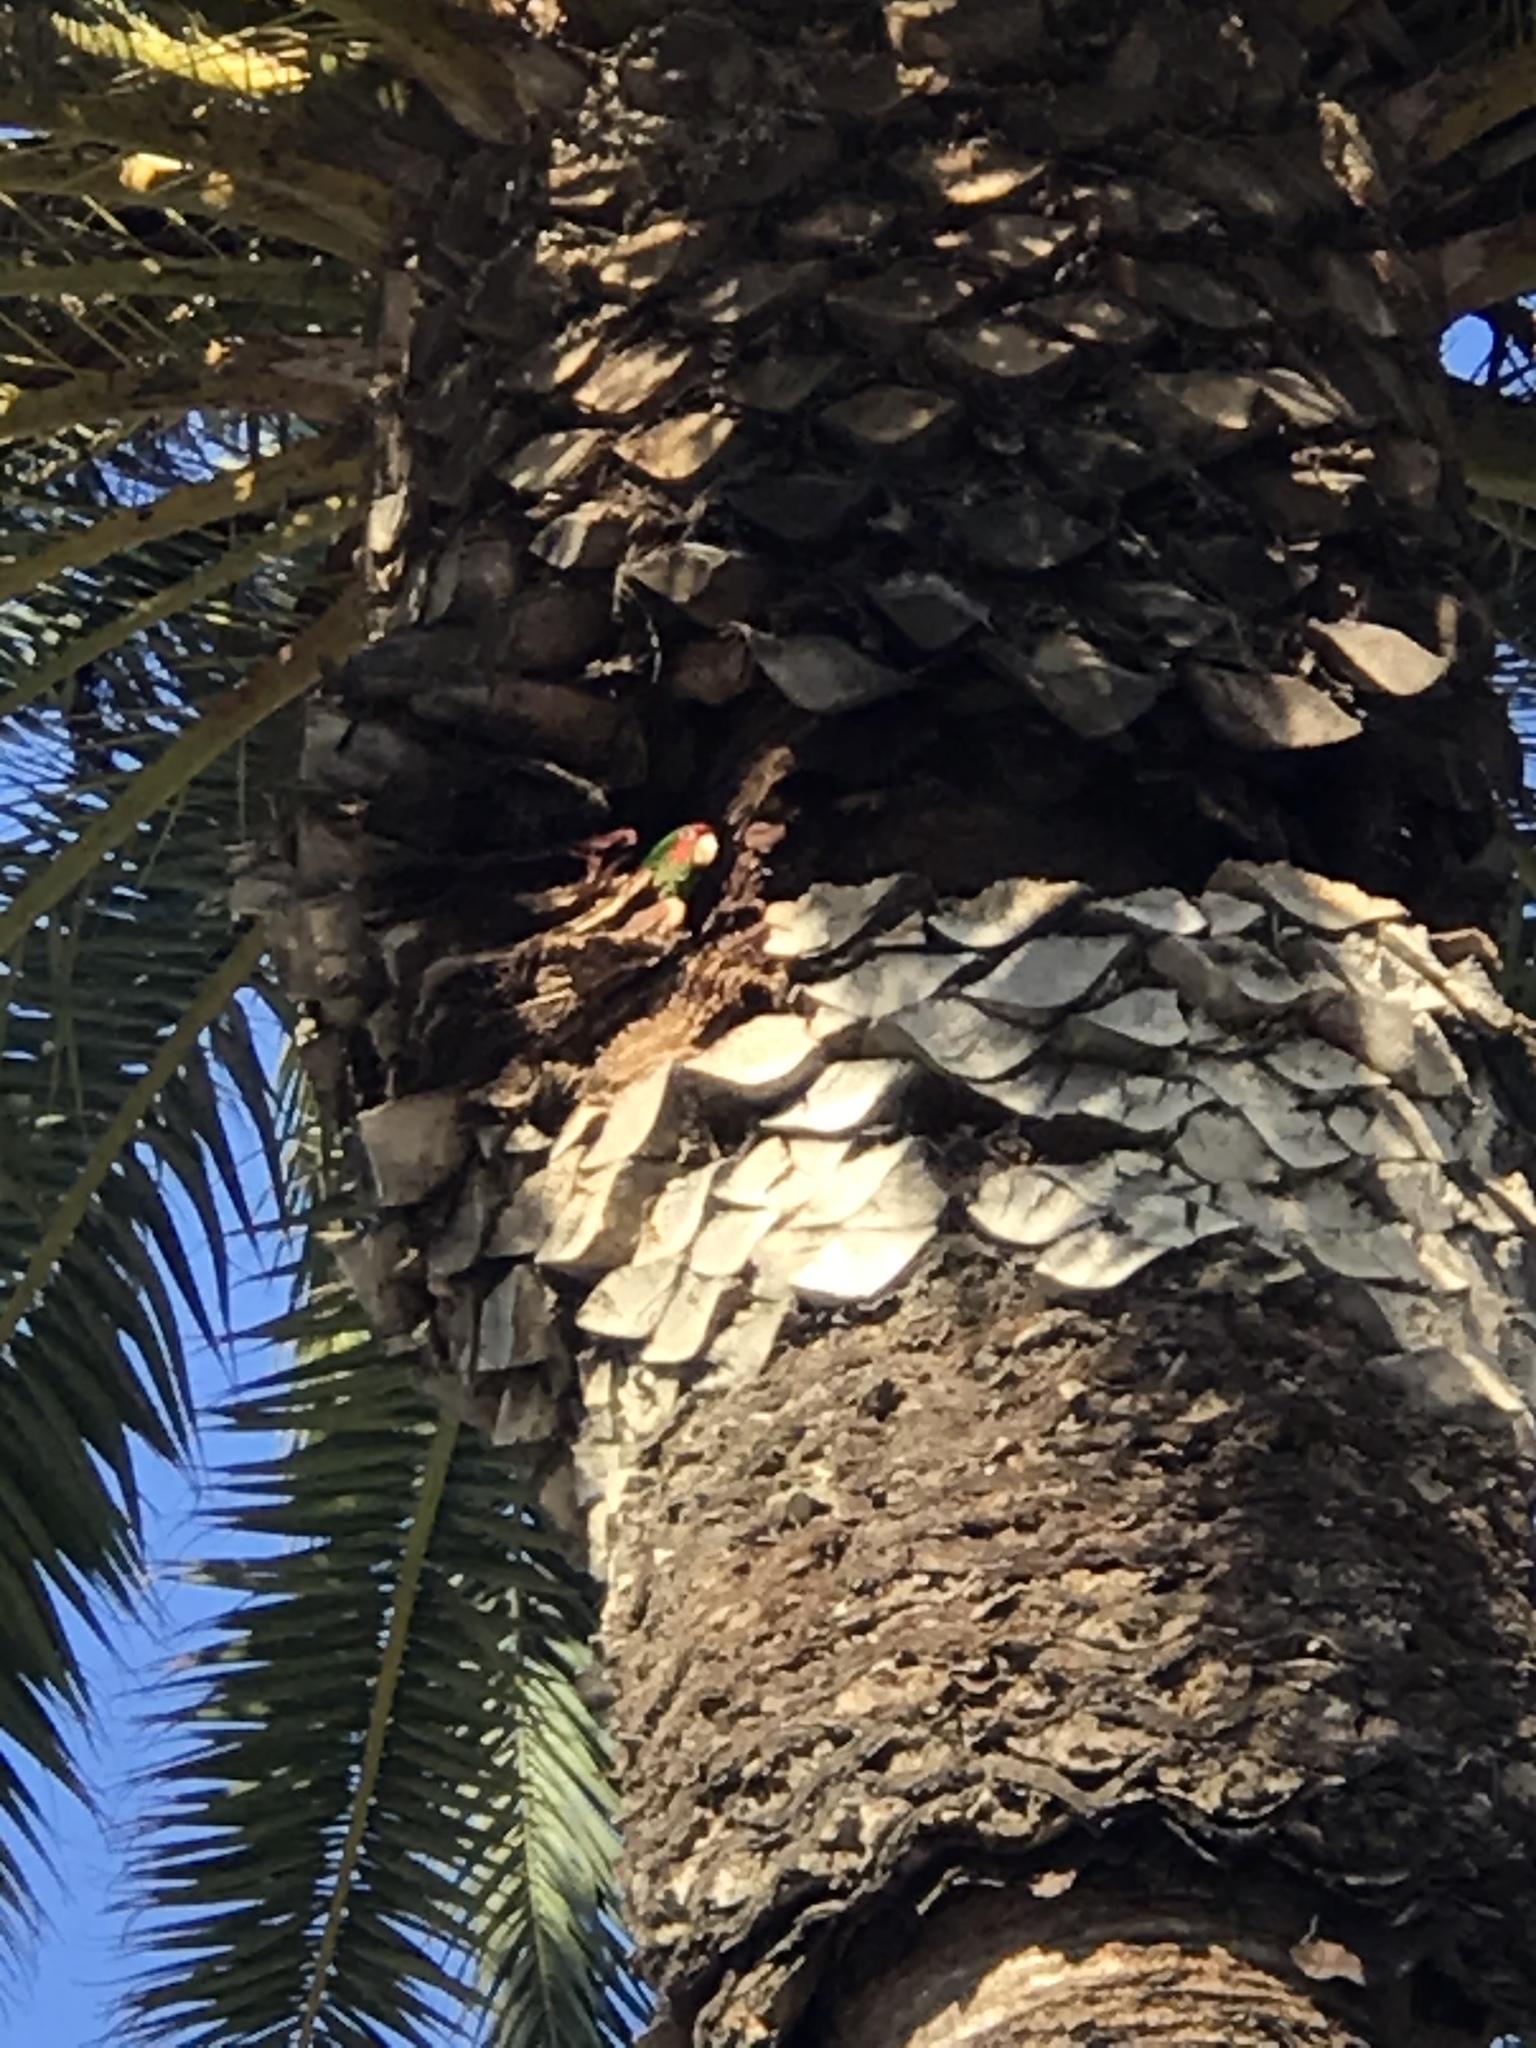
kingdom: Animalia
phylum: Chordata
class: Aves
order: Psittaciformes
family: Psittacidae
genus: Aratinga
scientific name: Aratinga mitrata
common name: Mitred parakeet
